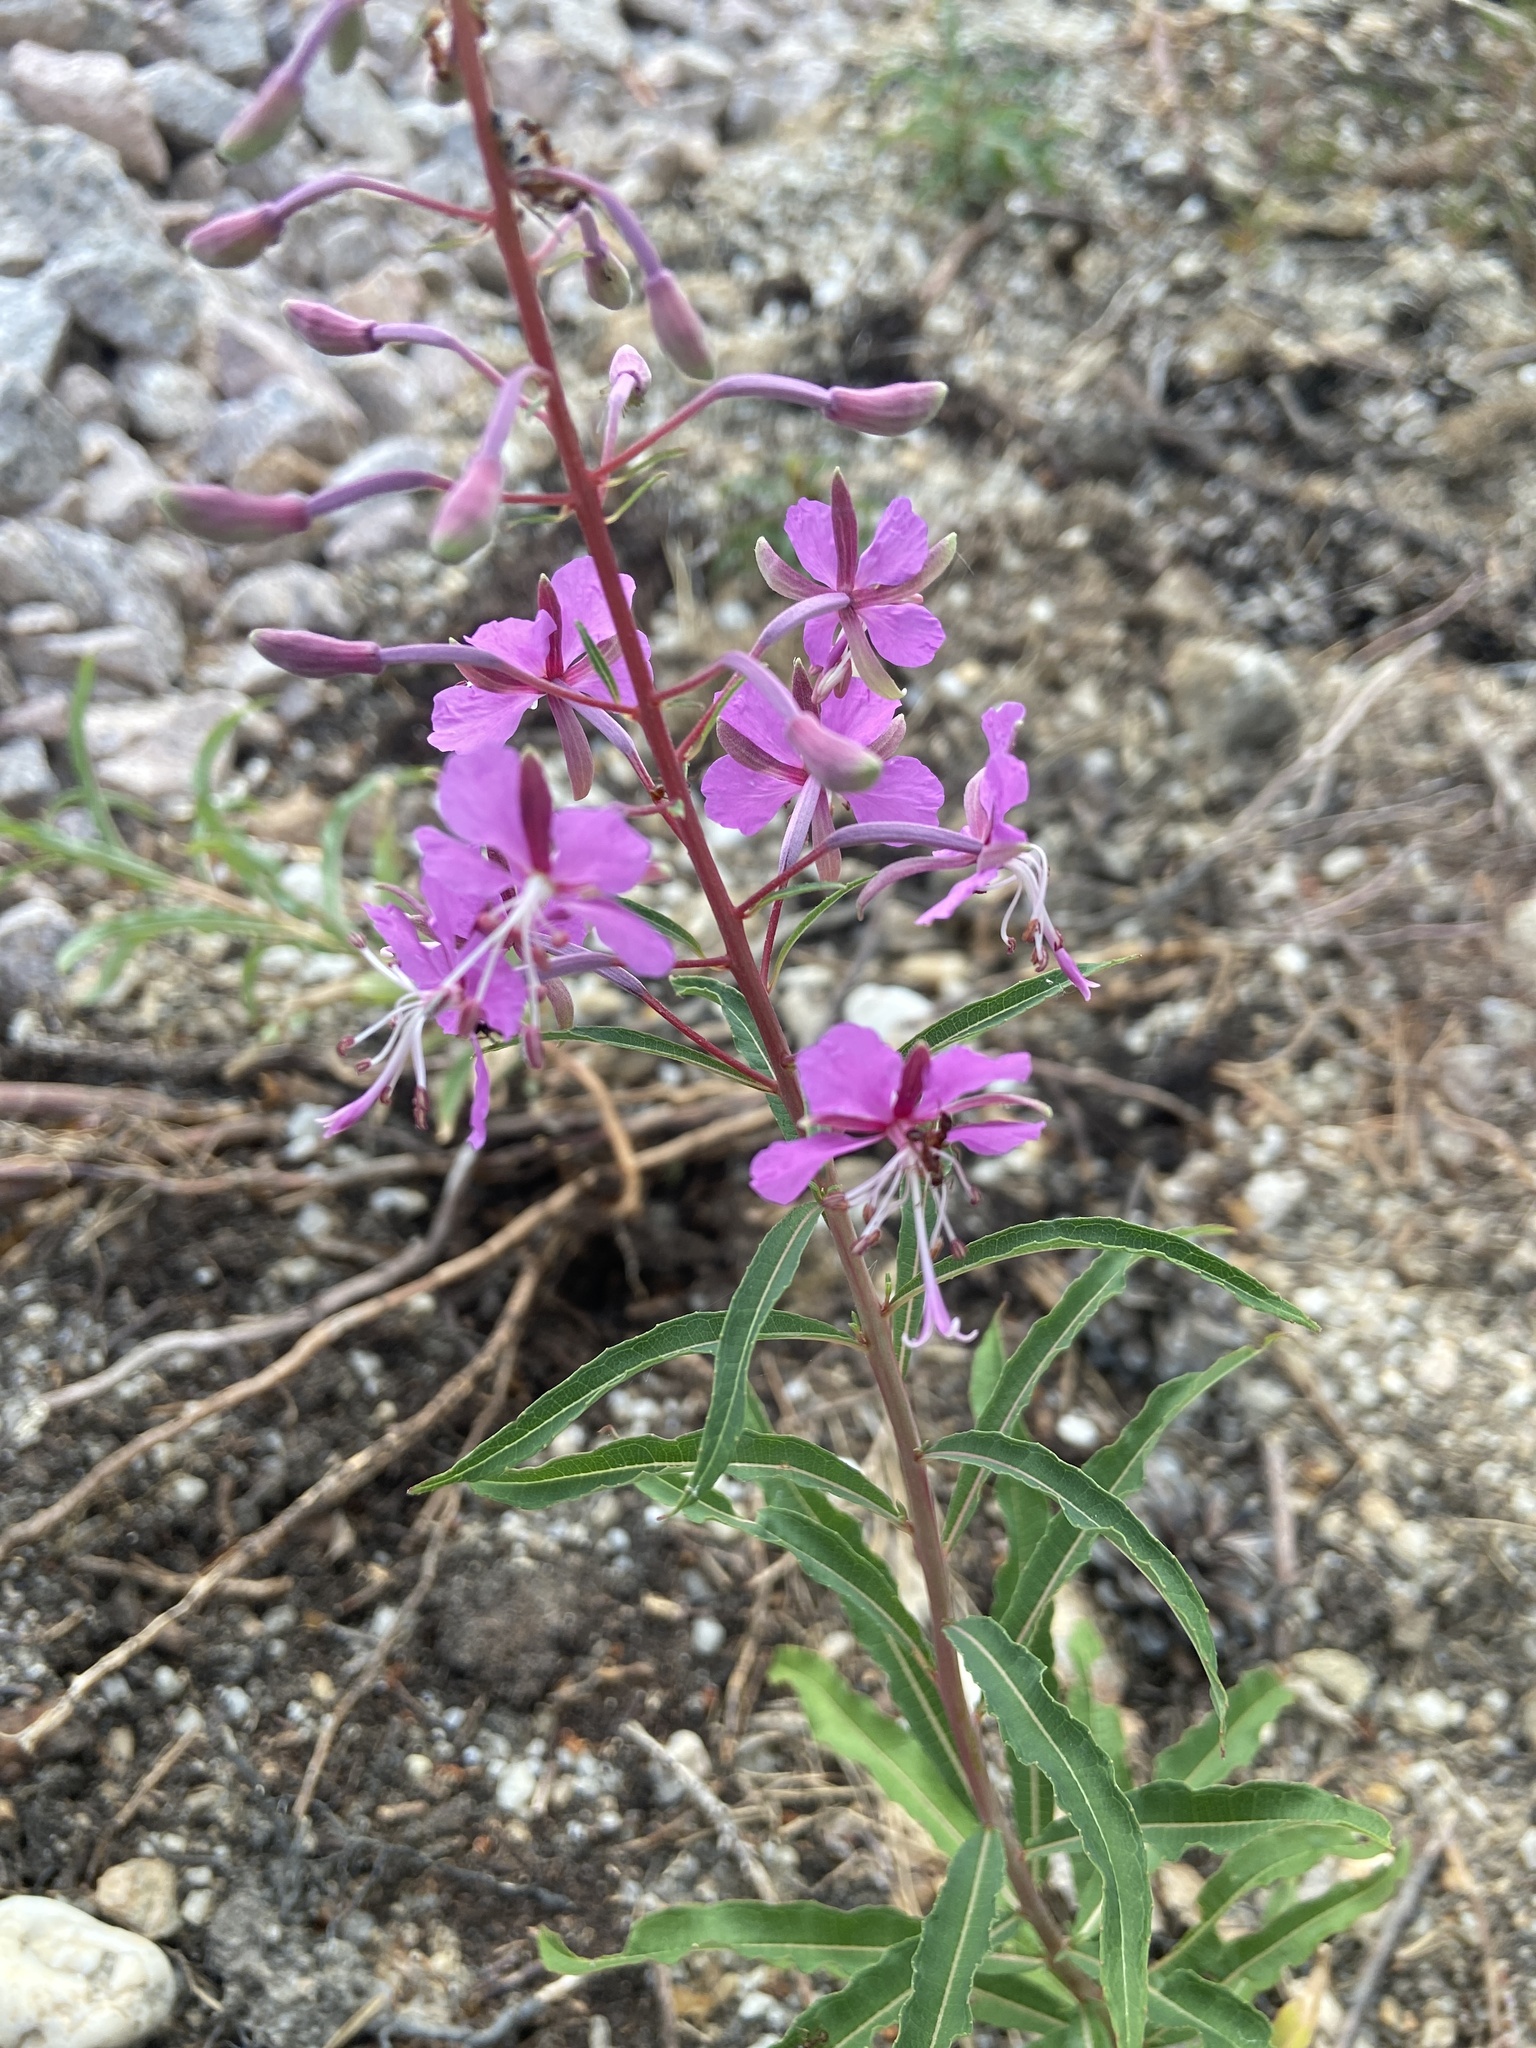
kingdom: Plantae
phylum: Tracheophyta
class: Magnoliopsida
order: Myrtales
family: Onagraceae
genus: Chamaenerion
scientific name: Chamaenerion angustifolium
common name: Fireweed
